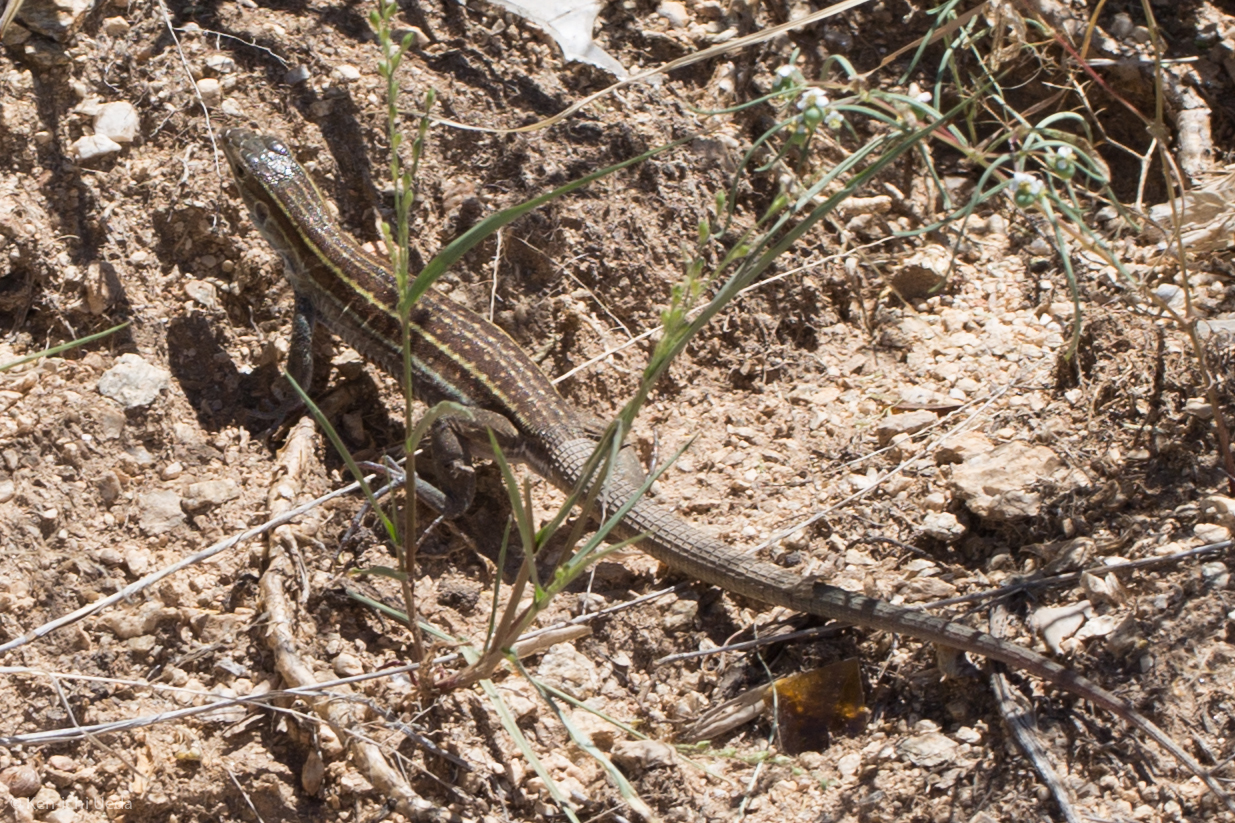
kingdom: Animalia
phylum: Chordata
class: Squamata
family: Teiidae
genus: Aspidoscelis
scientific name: Aspidoscelis sonorae
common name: Sonoran spotted whiptail
